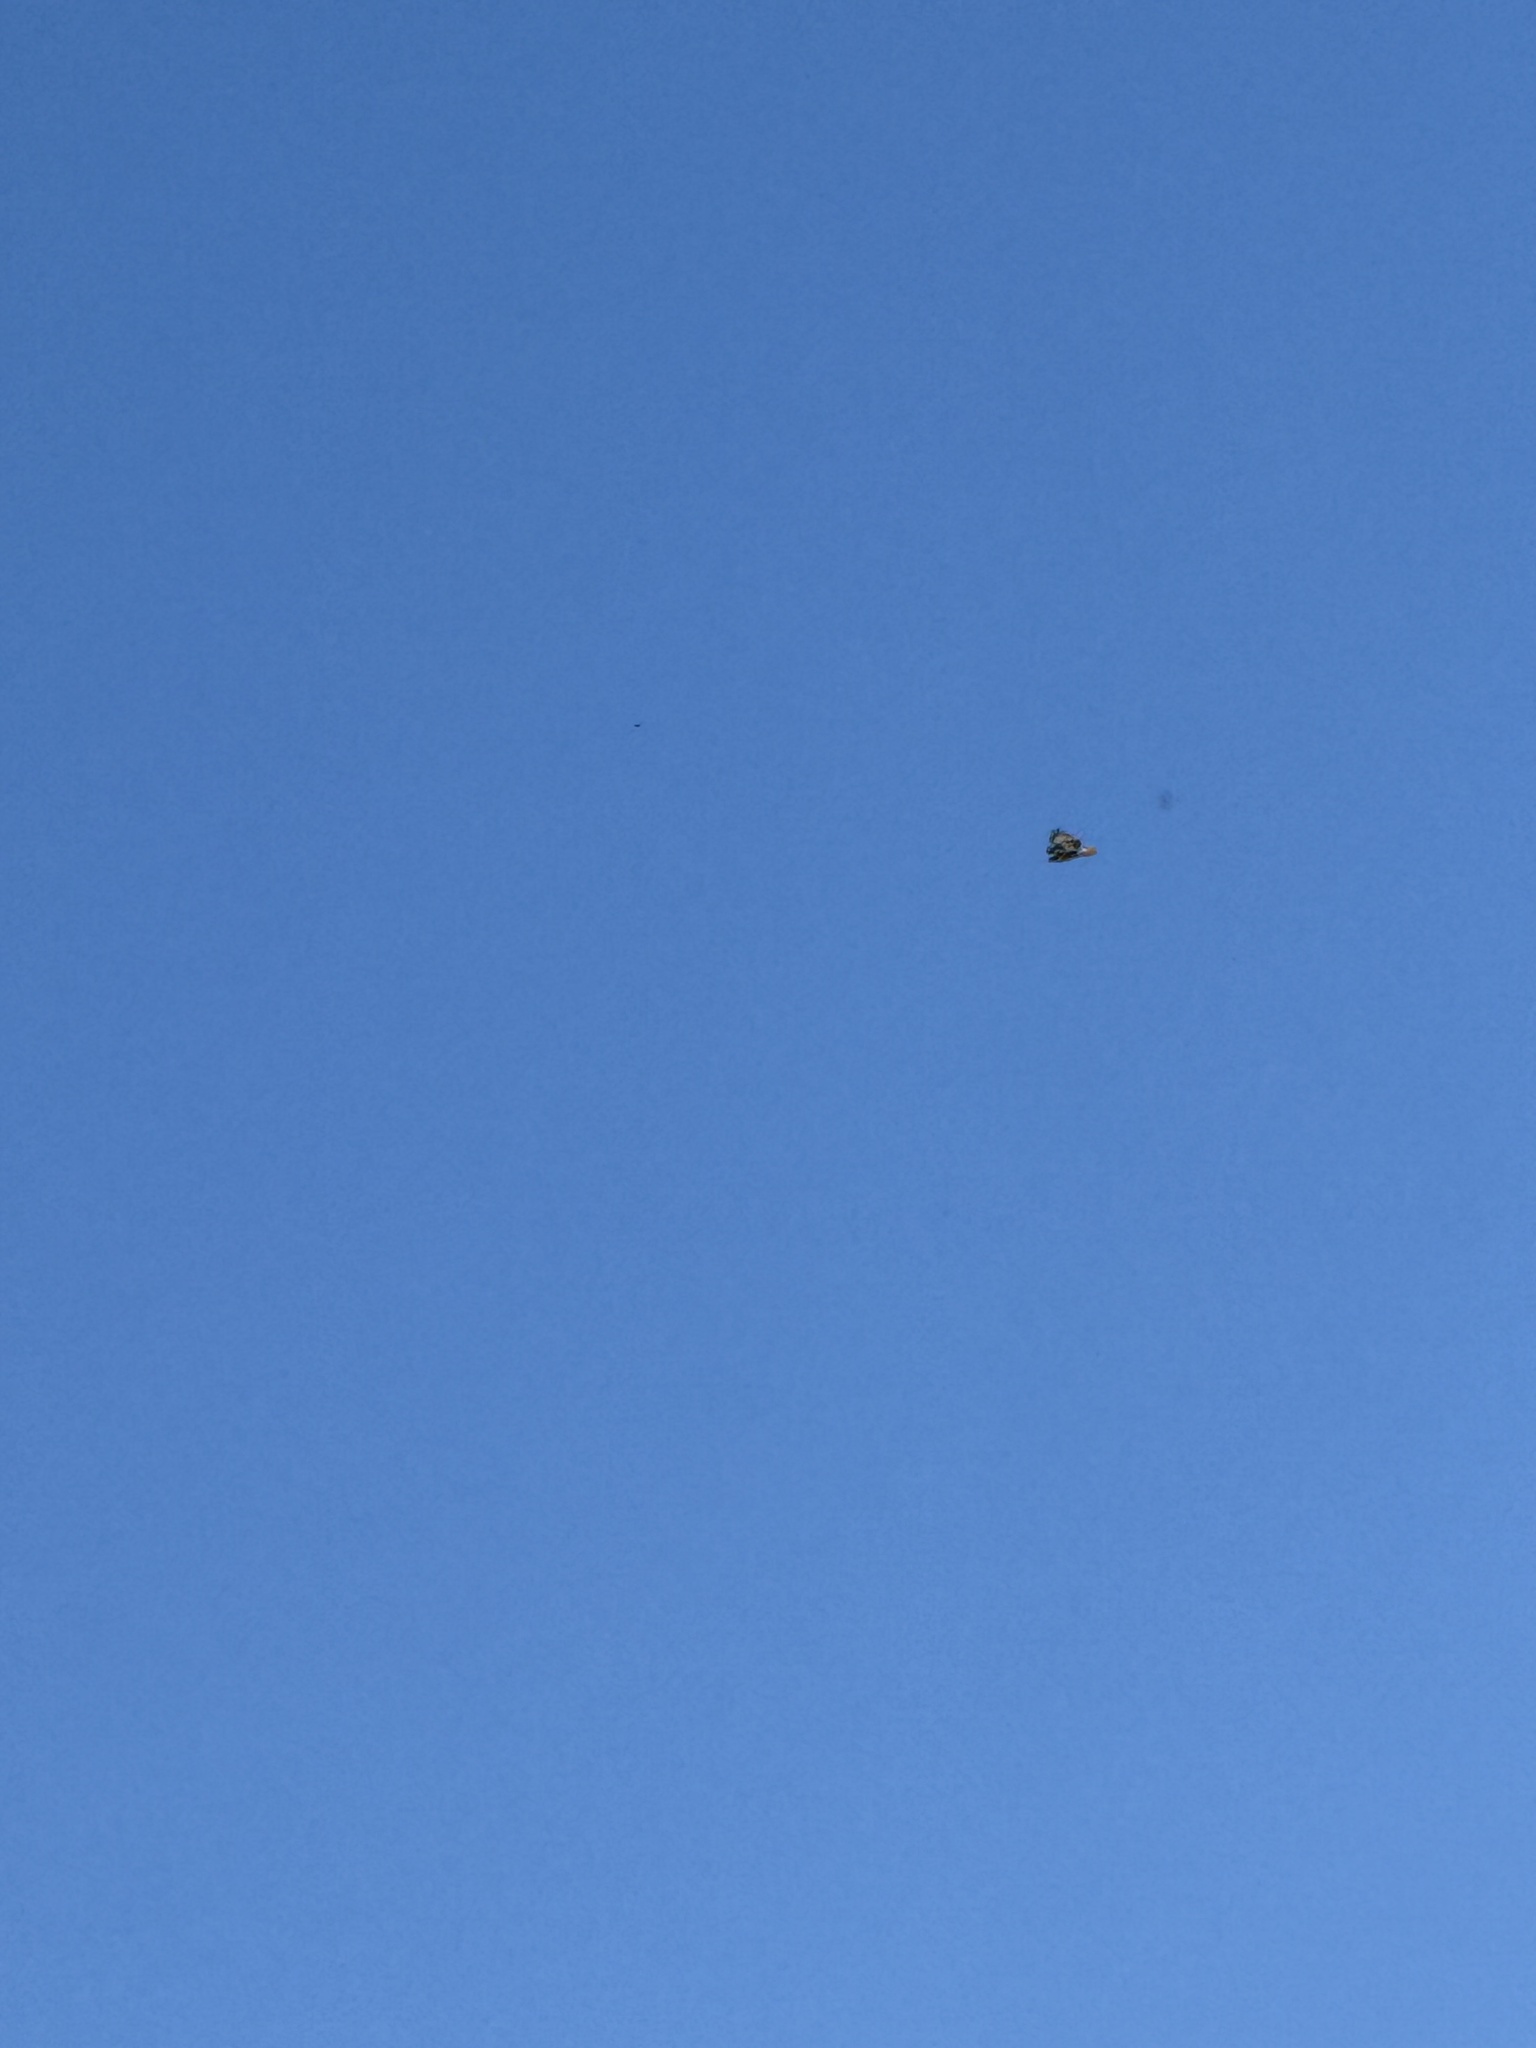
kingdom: Animalia
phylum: Chordata
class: Aves
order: Accipitriformes
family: Accipitridae
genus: Buteo
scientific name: Buteo jamaicensis
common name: Red-tailed hawk
